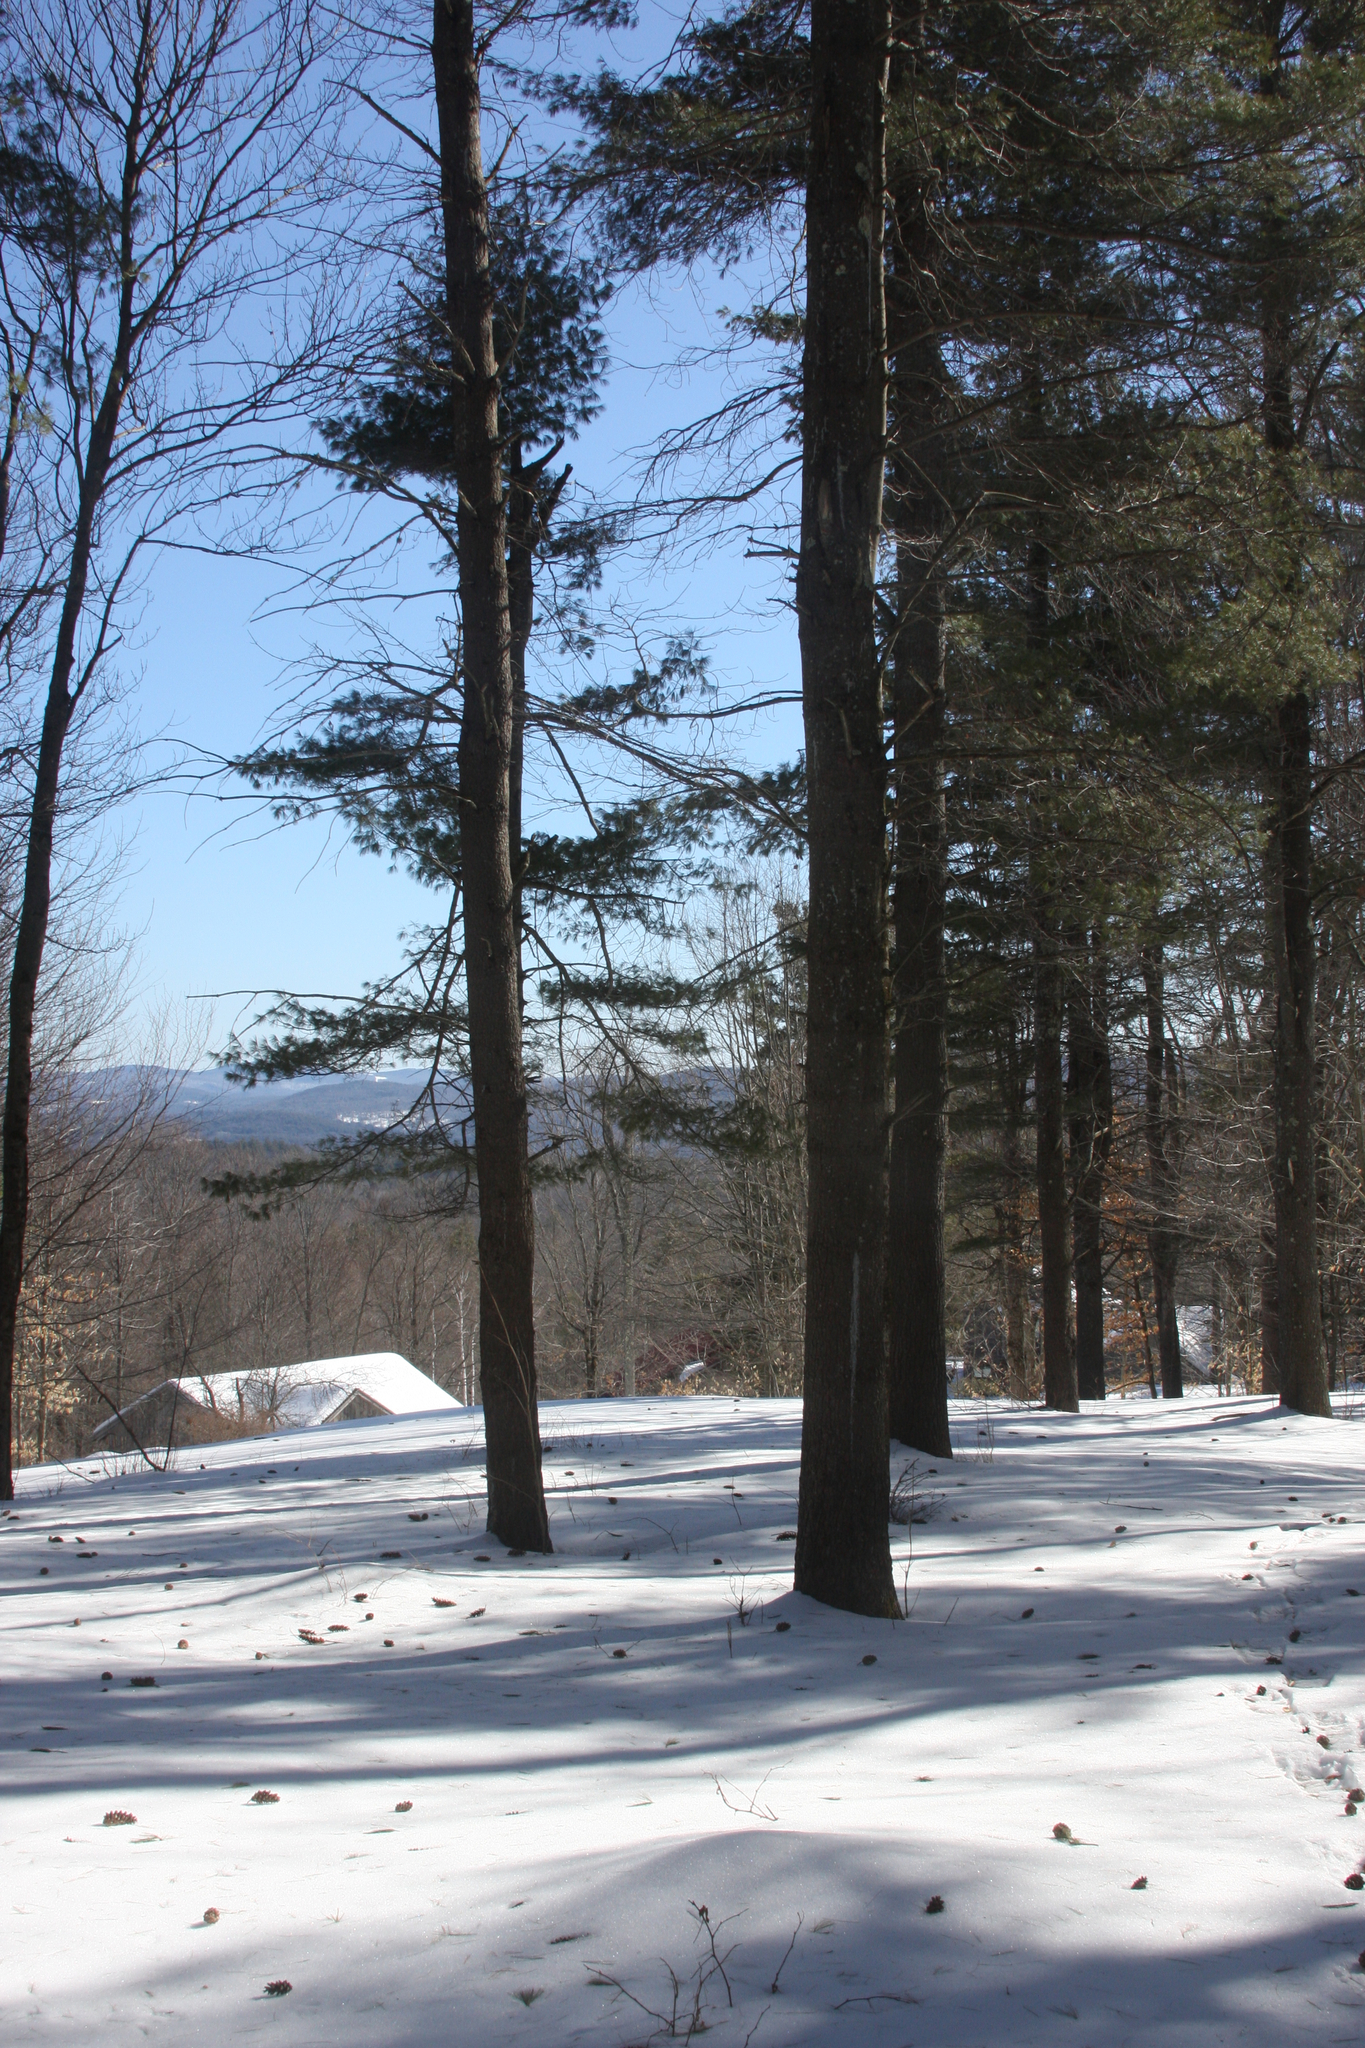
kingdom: Plantae
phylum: Tracheophyta
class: Pinopsida
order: Pinales
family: Pinaceae
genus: Pinus
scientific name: Pinus strobus
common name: Weymouth pine
